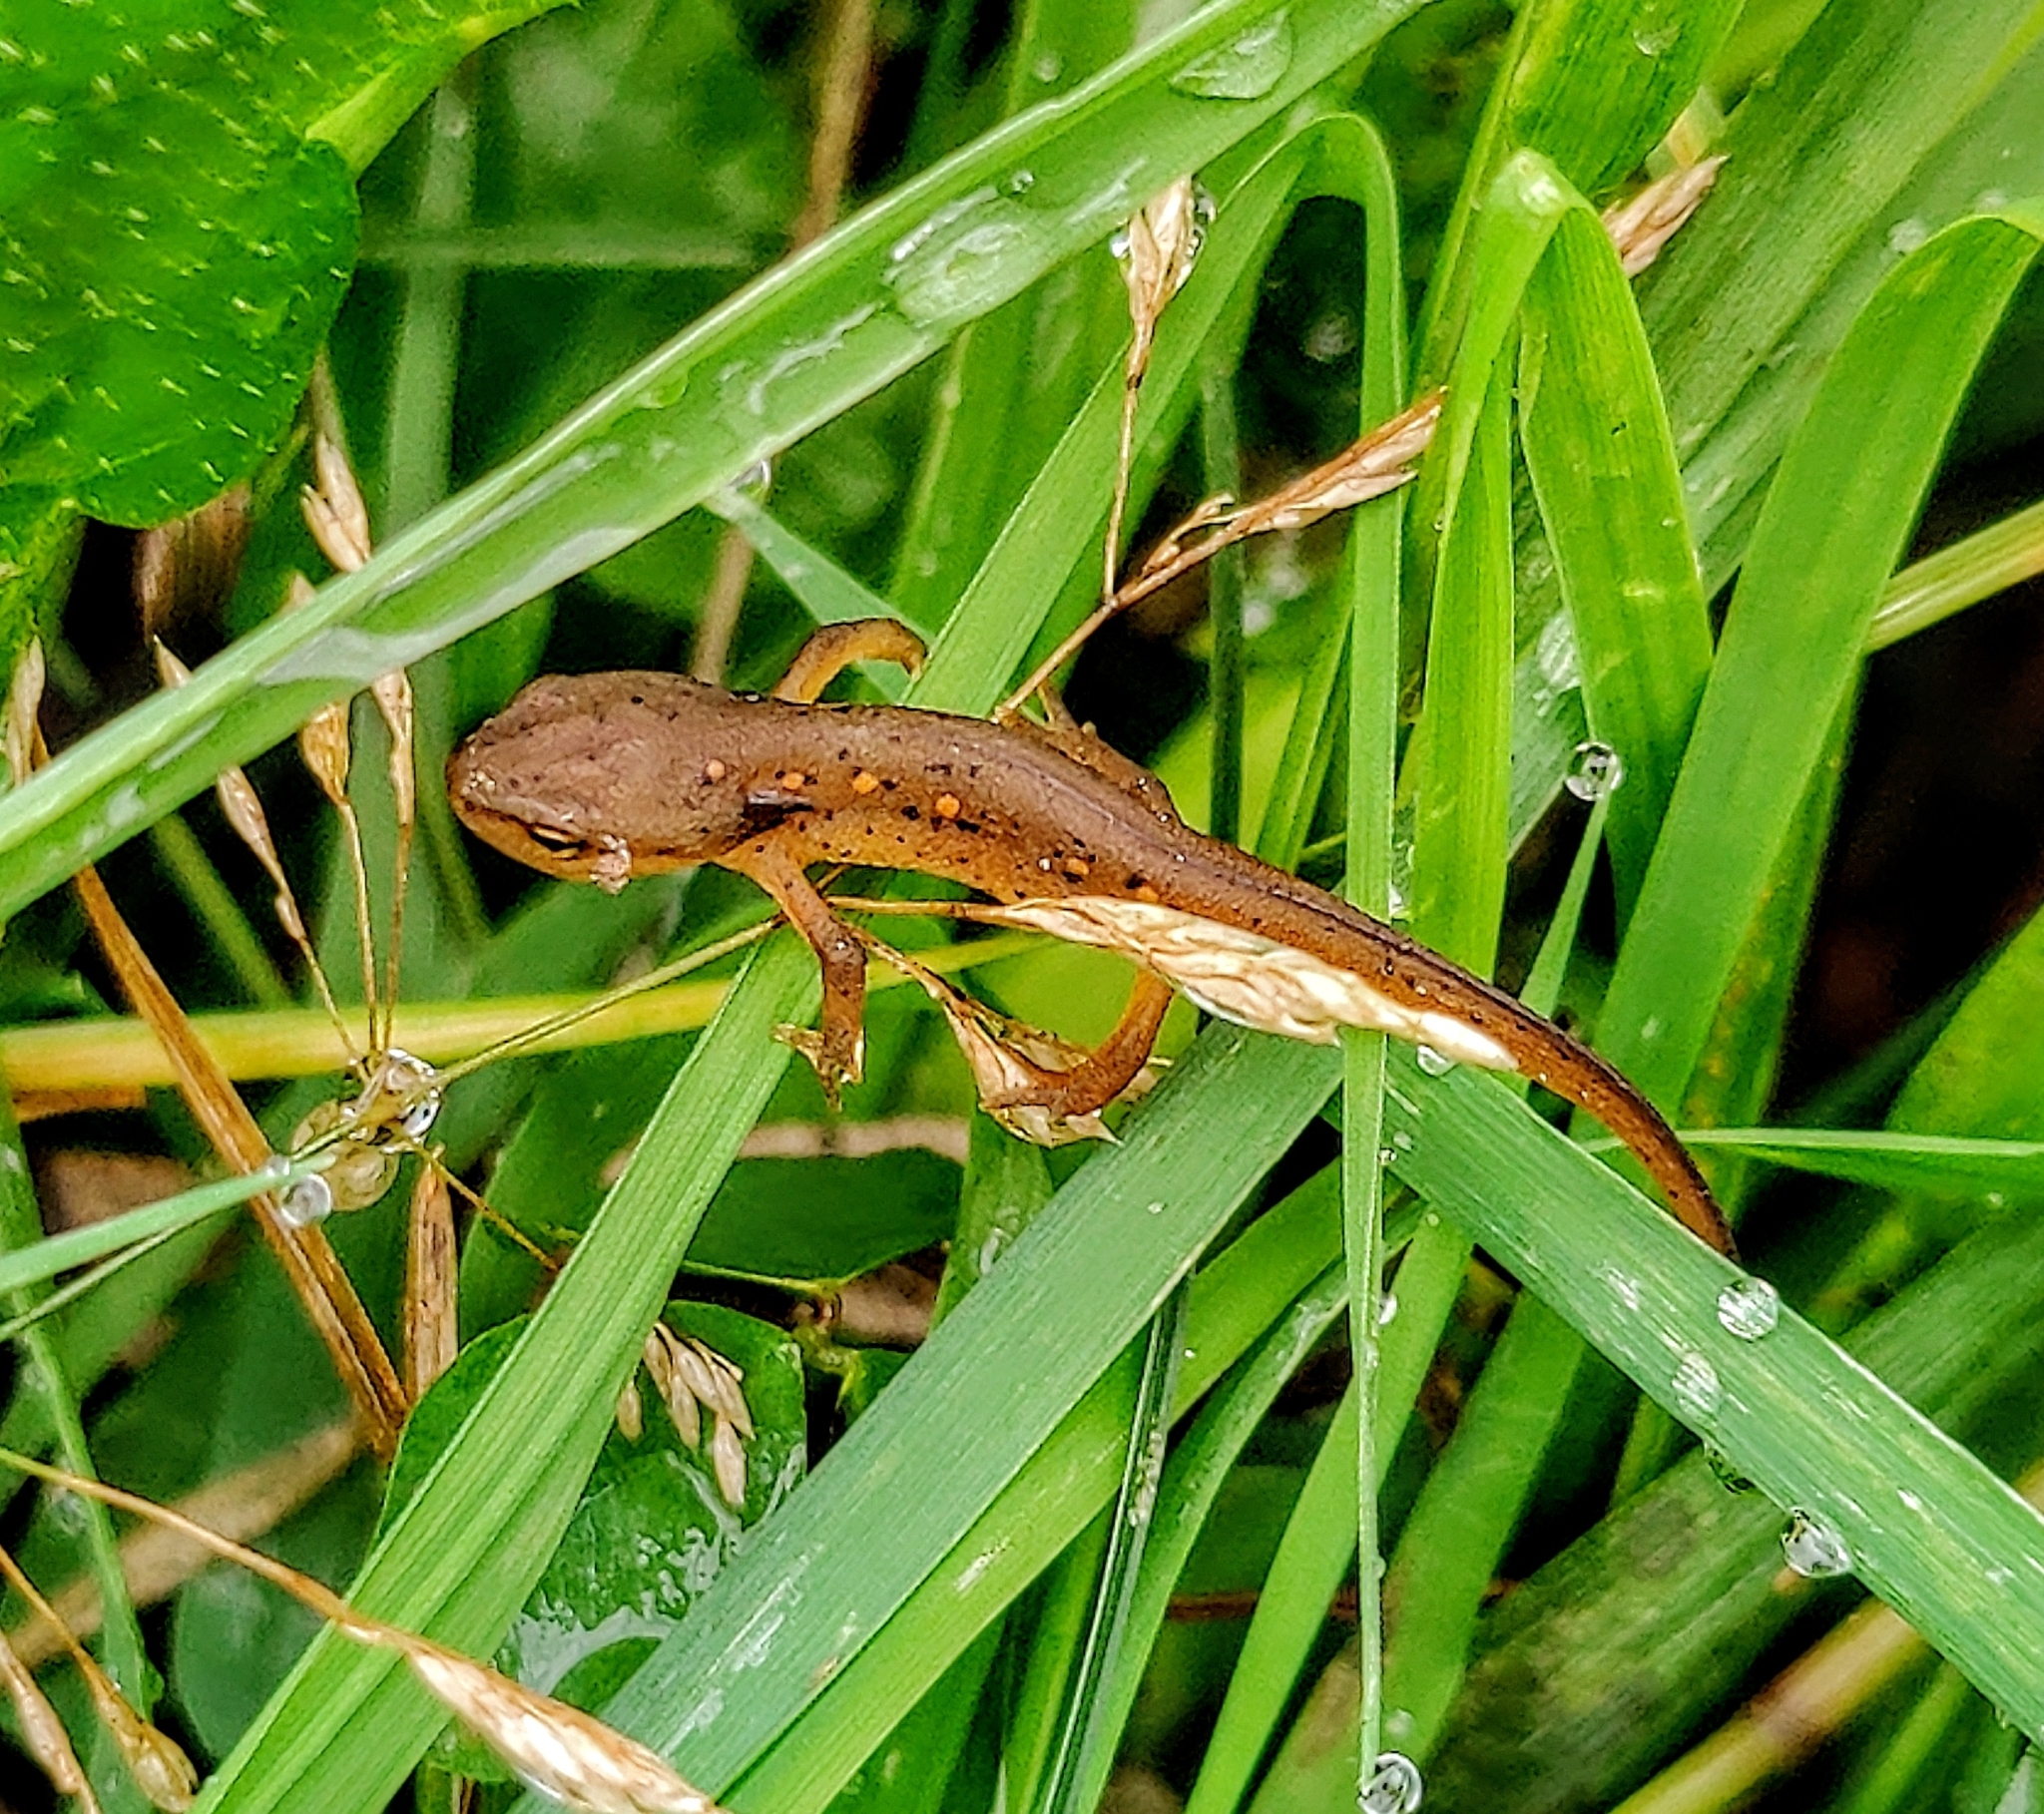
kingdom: Animalia
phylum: Chordata
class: Amphibia
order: Caudata
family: Salamandridae
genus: Notophthalmus
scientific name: Notophthalmus viridescens
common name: Eastern newt
